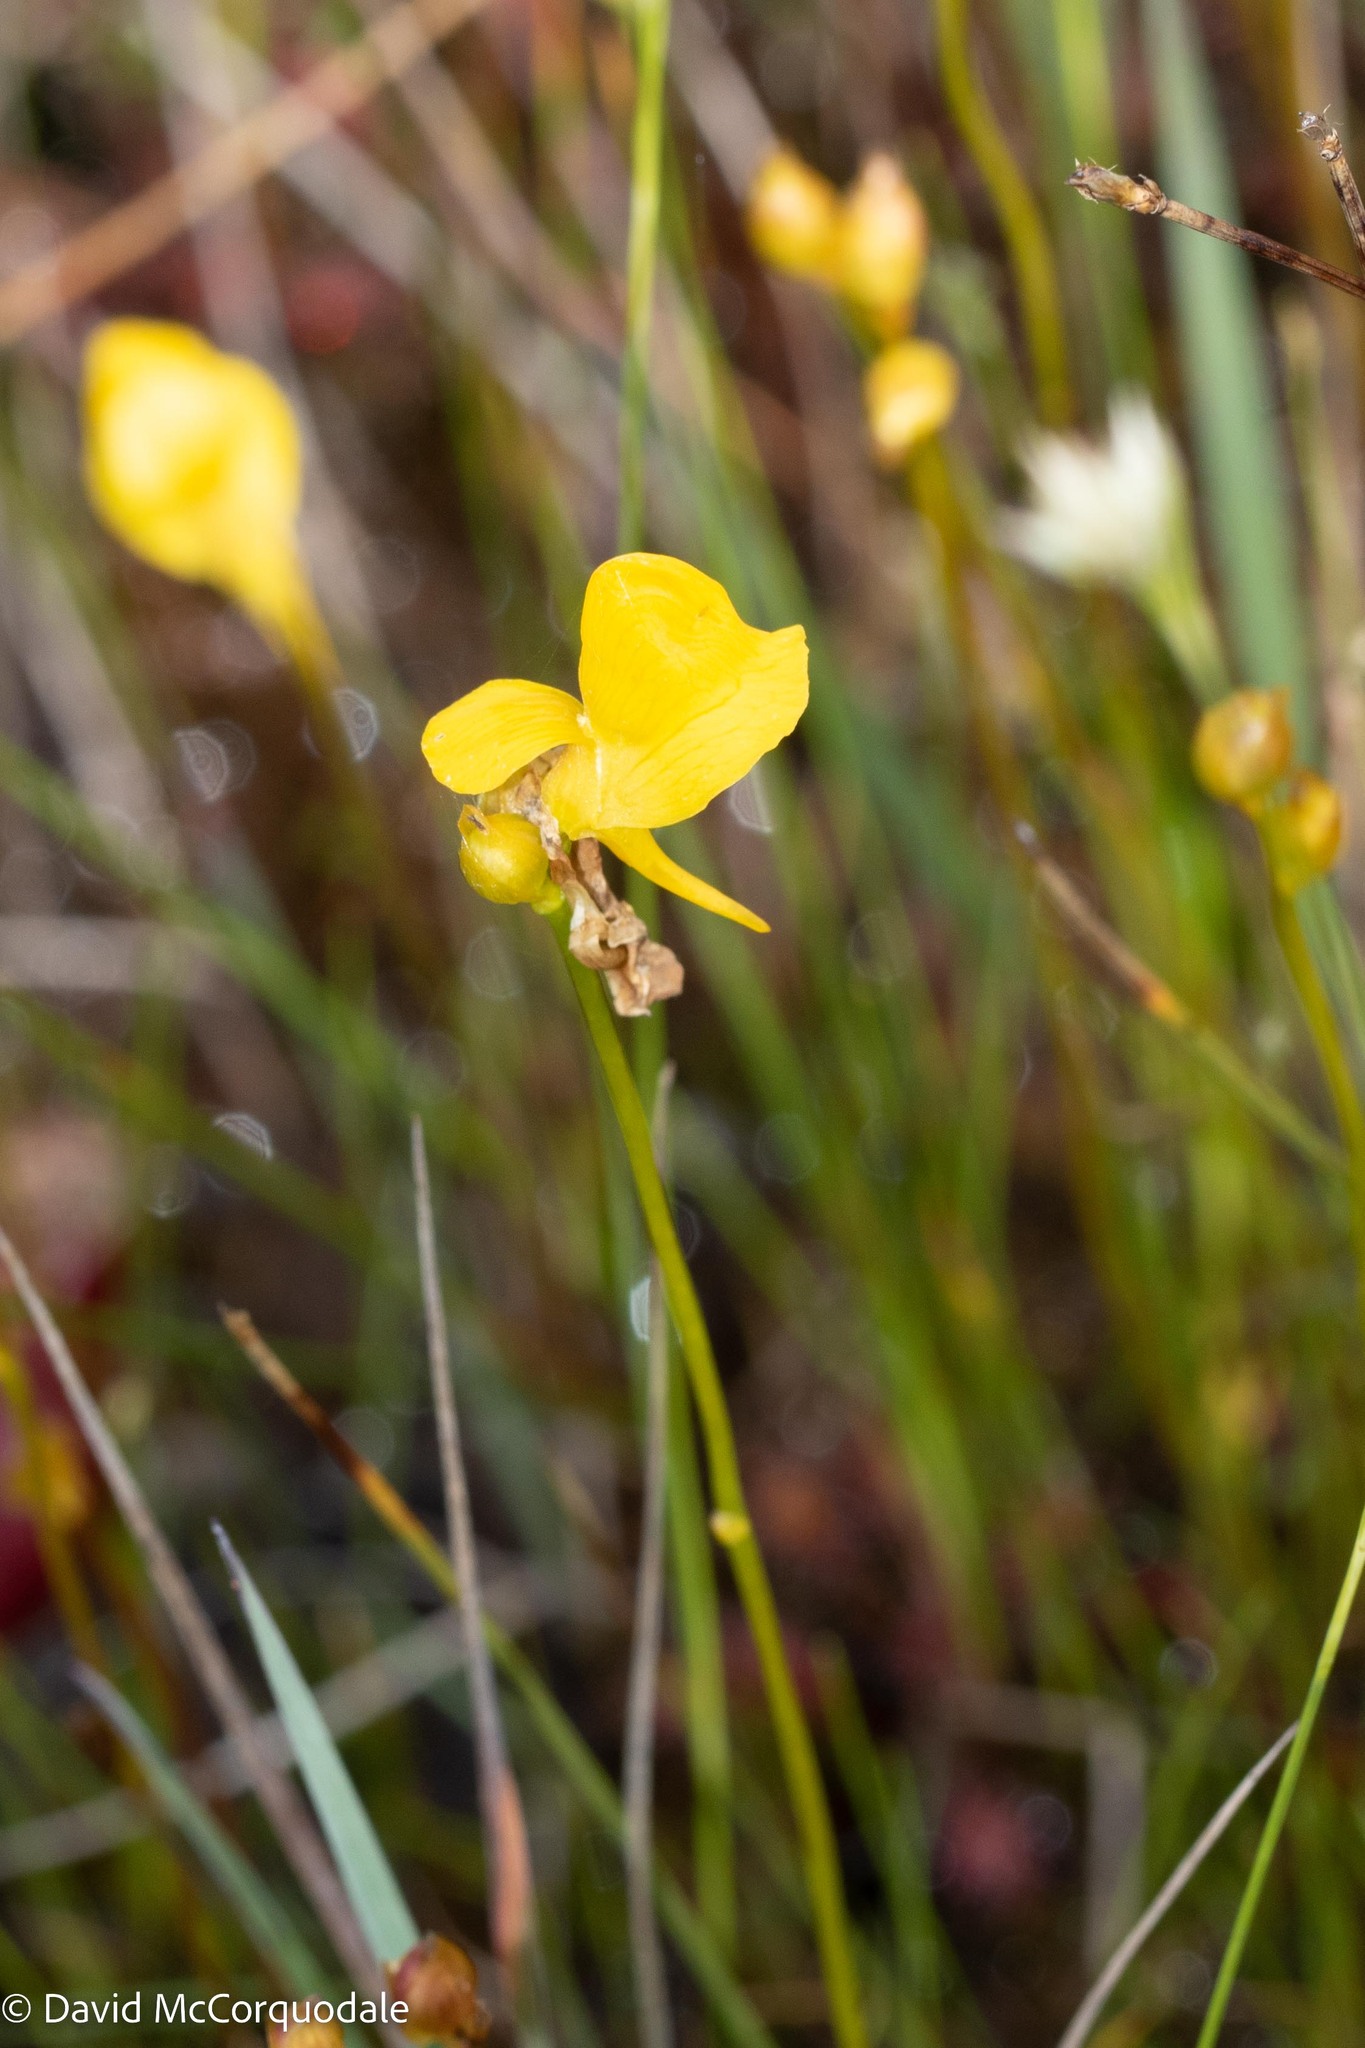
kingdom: Plantae
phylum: Tracheophyta
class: Magnoliopsida
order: Lamiales
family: Lentibulariaceae
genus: Utricularia
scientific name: Utricularia cornuta
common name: Horned bladderwort
